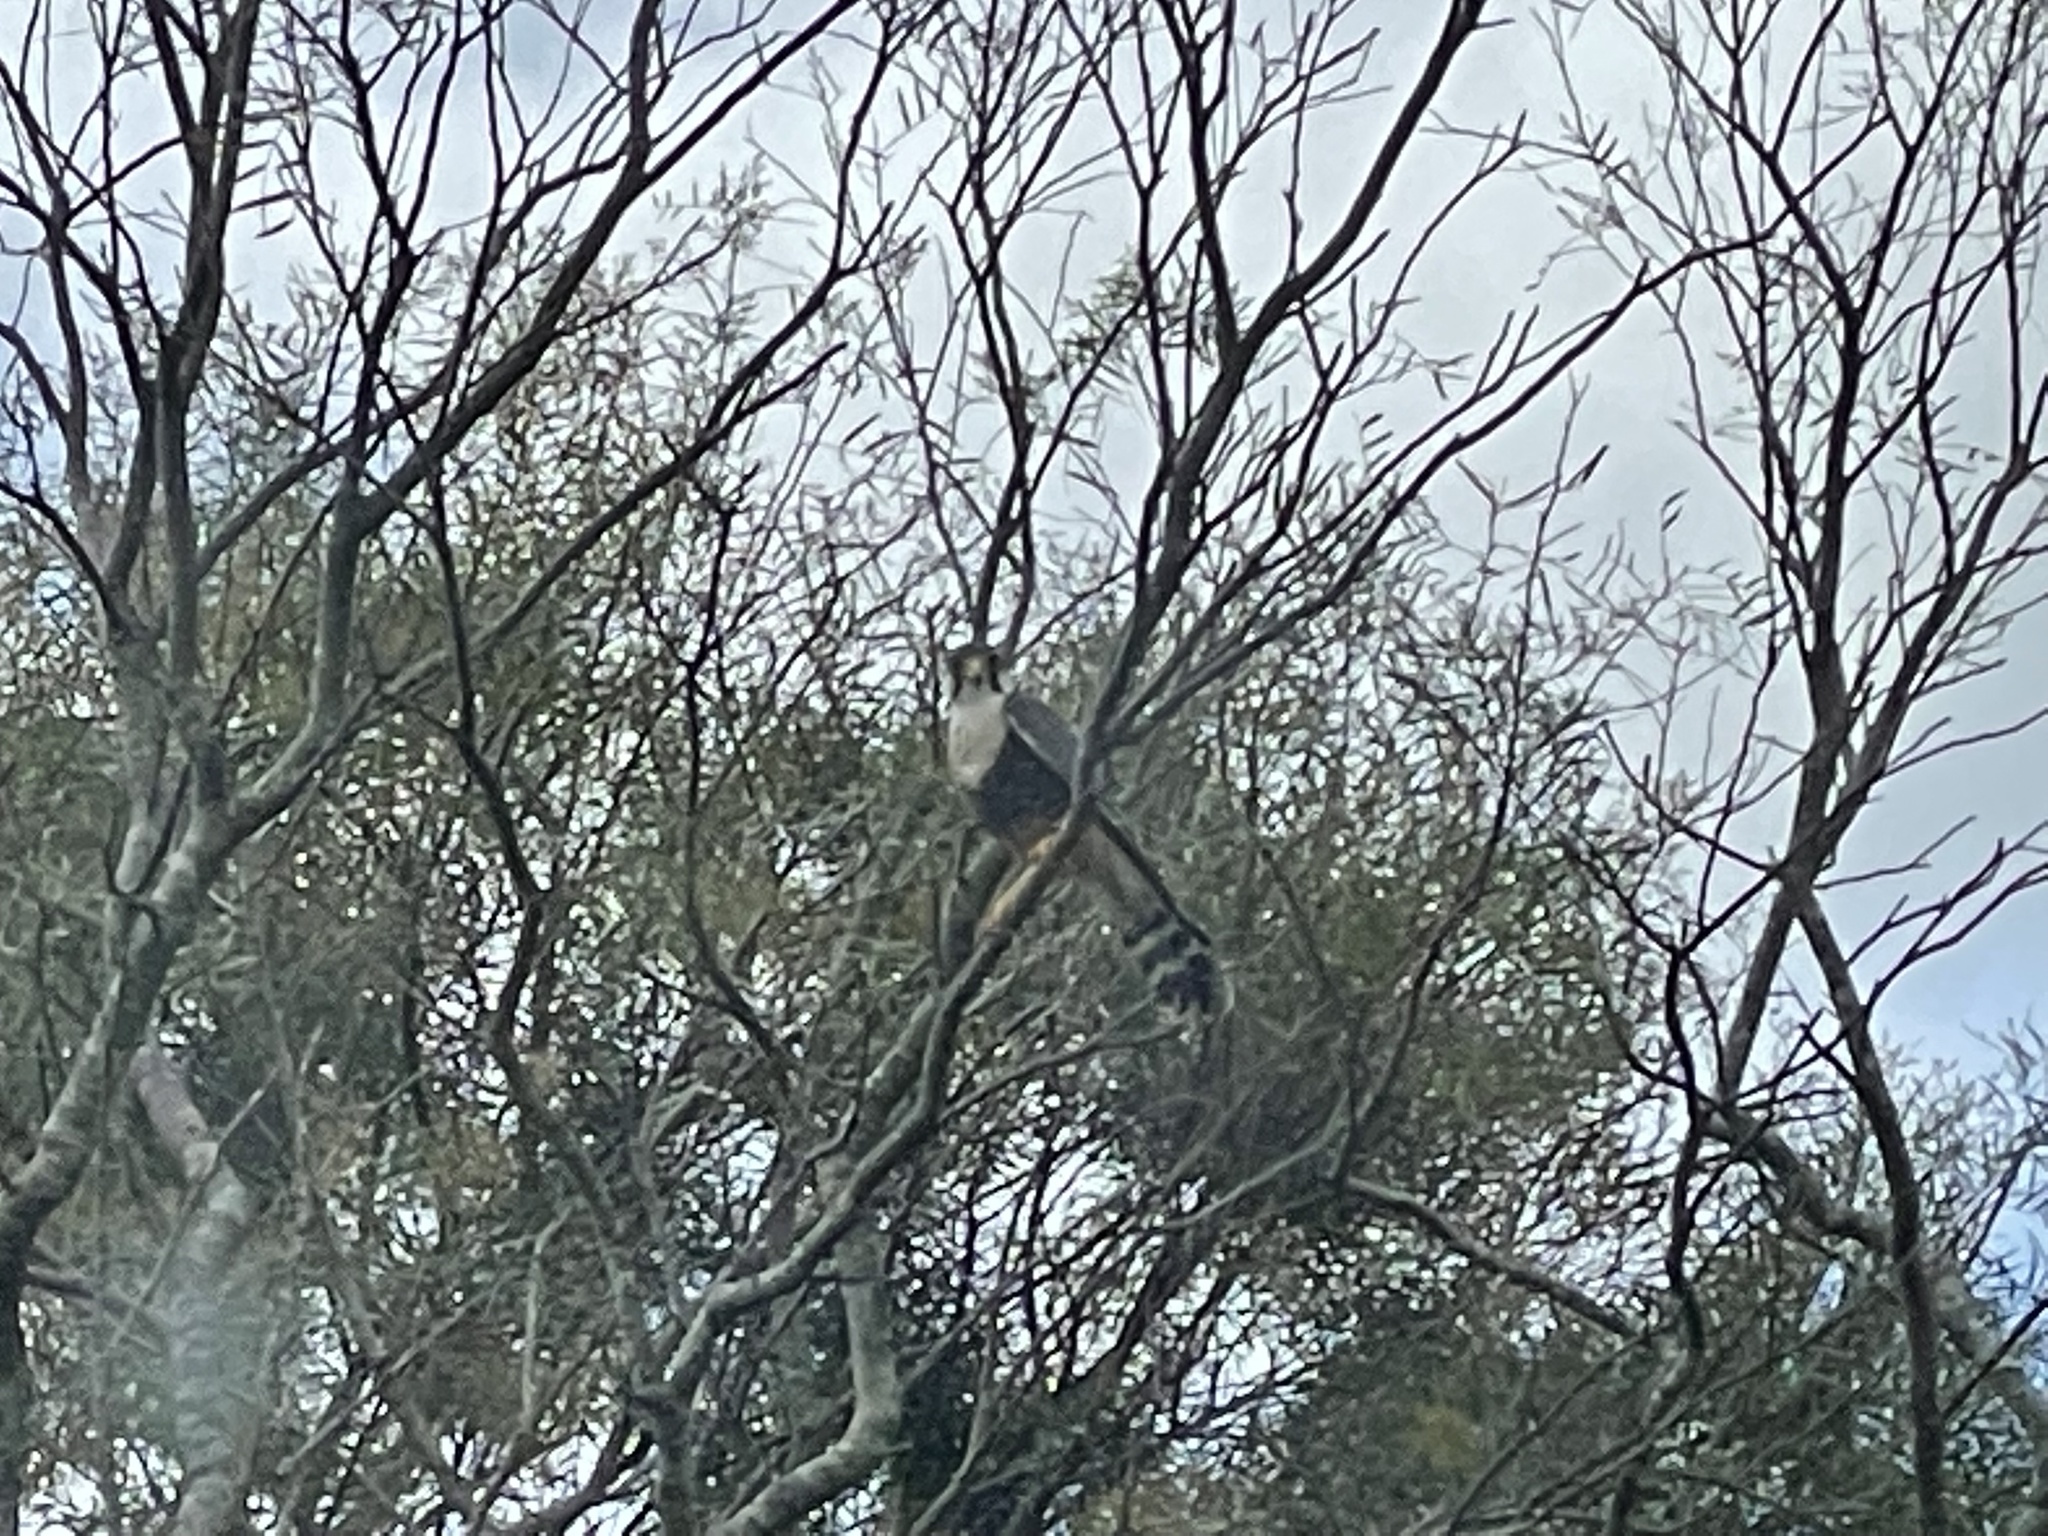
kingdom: Animalia
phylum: Chordata
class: Aves
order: Falconiformes
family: Falconidae
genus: Falco
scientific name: Falco femoralis
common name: Aplomado falcon
